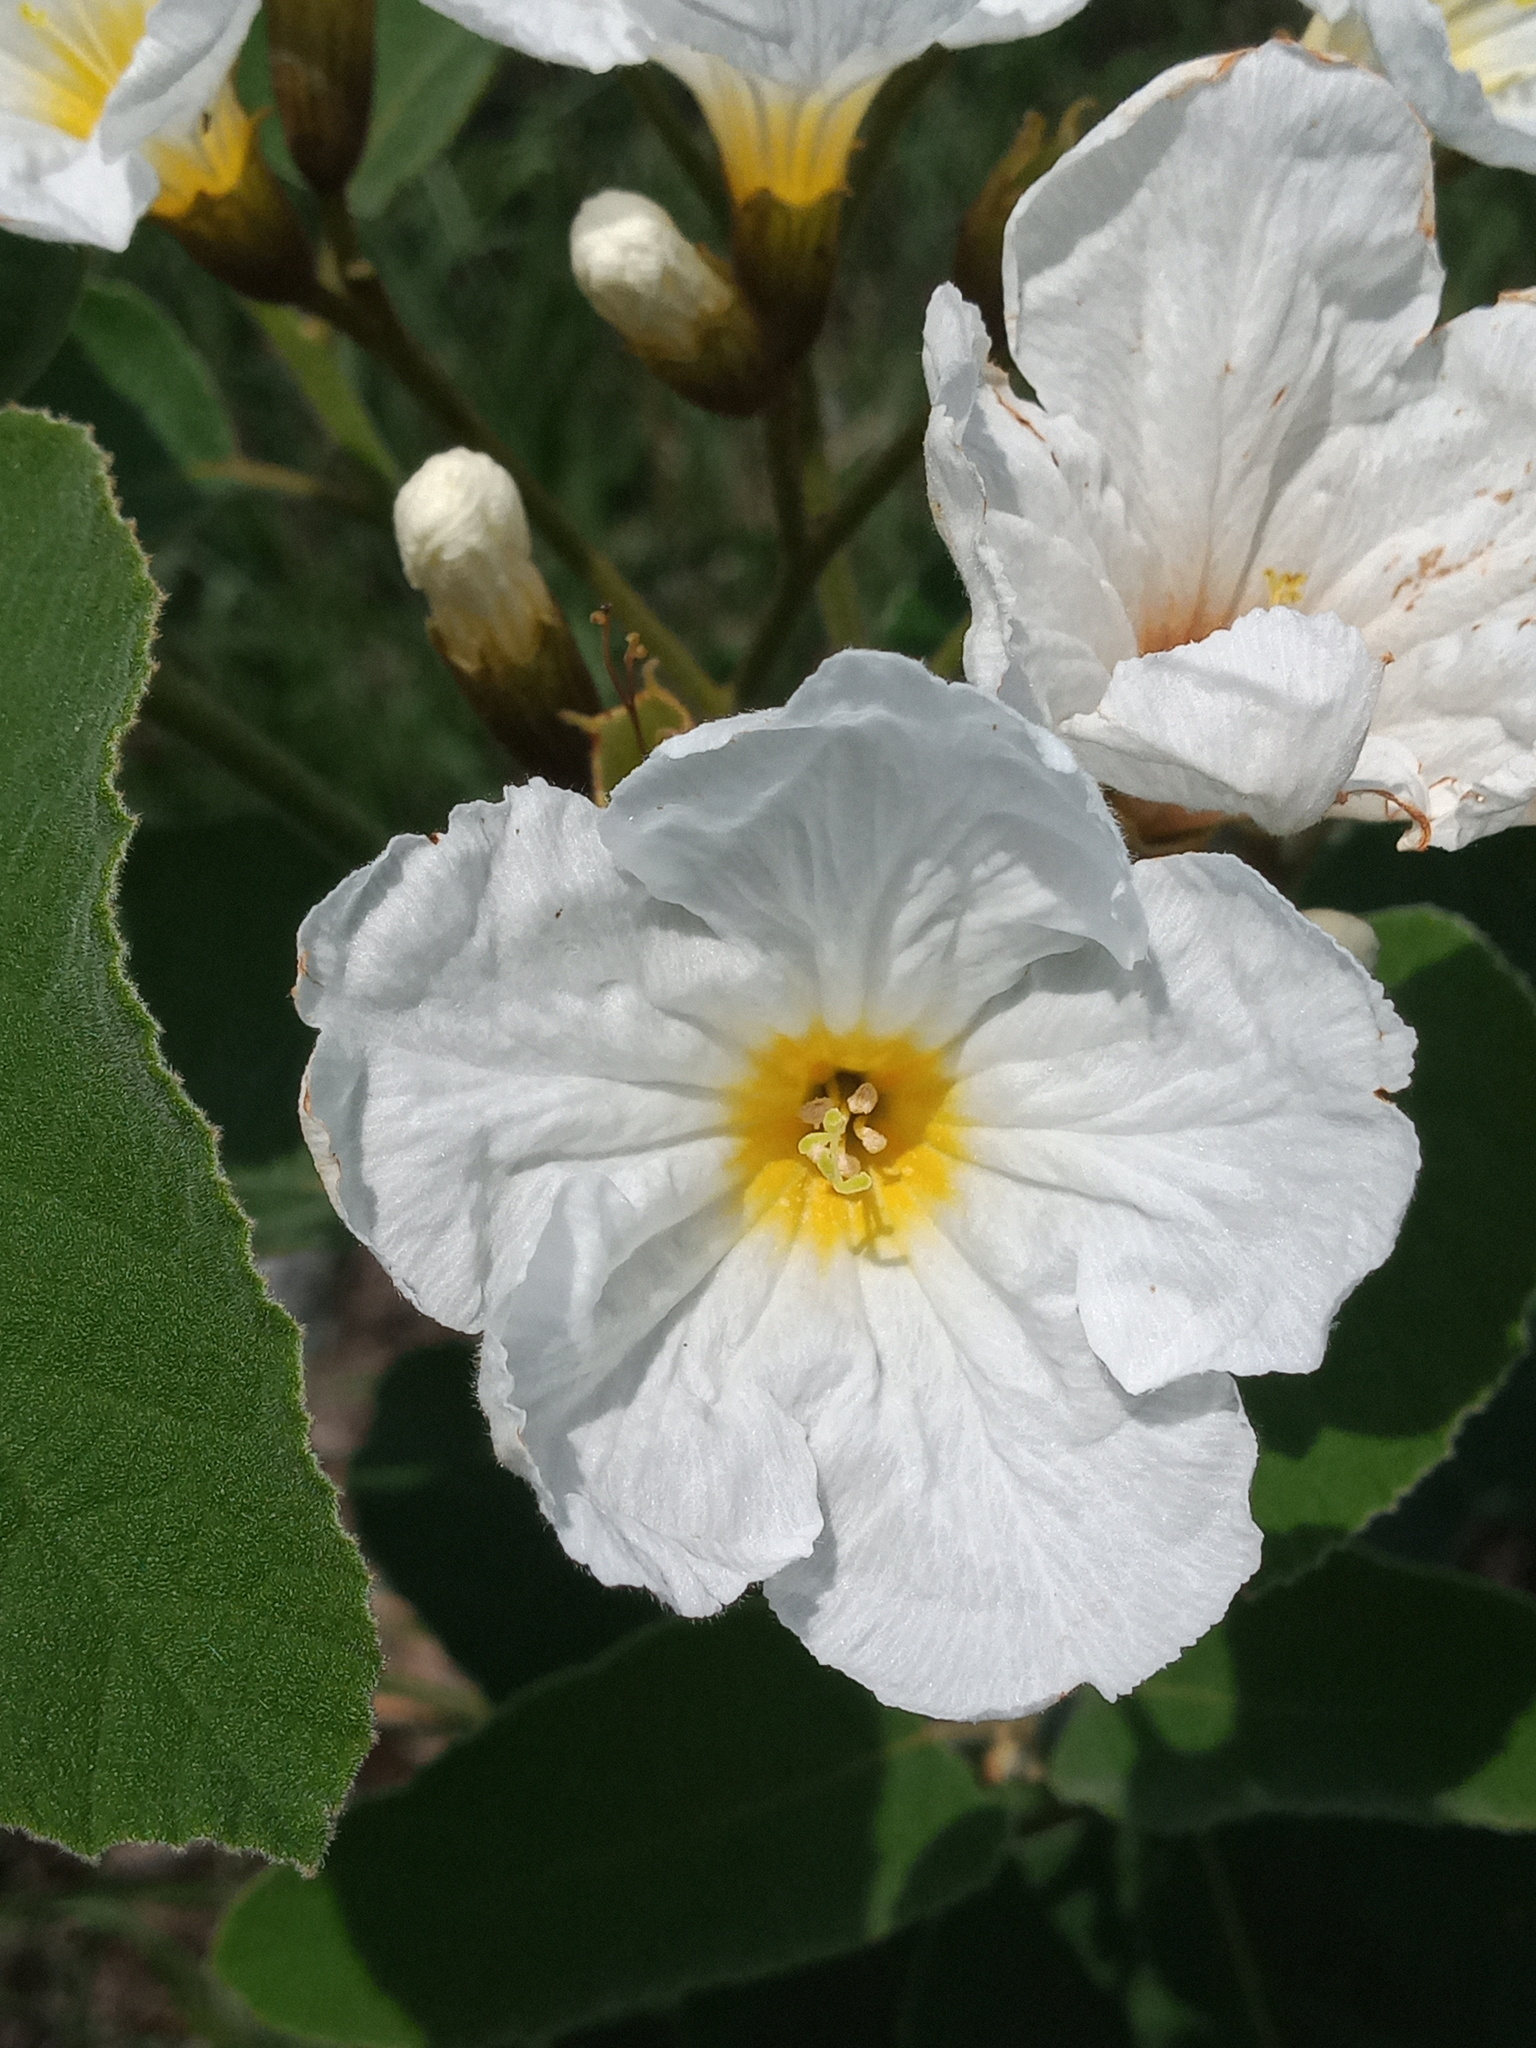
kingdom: Plantae
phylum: Tracheophyta
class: Magnoliopsida
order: Boraginales
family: Cordiaceae
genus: Cordia
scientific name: Cordia boissieri
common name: Mexican-olive
